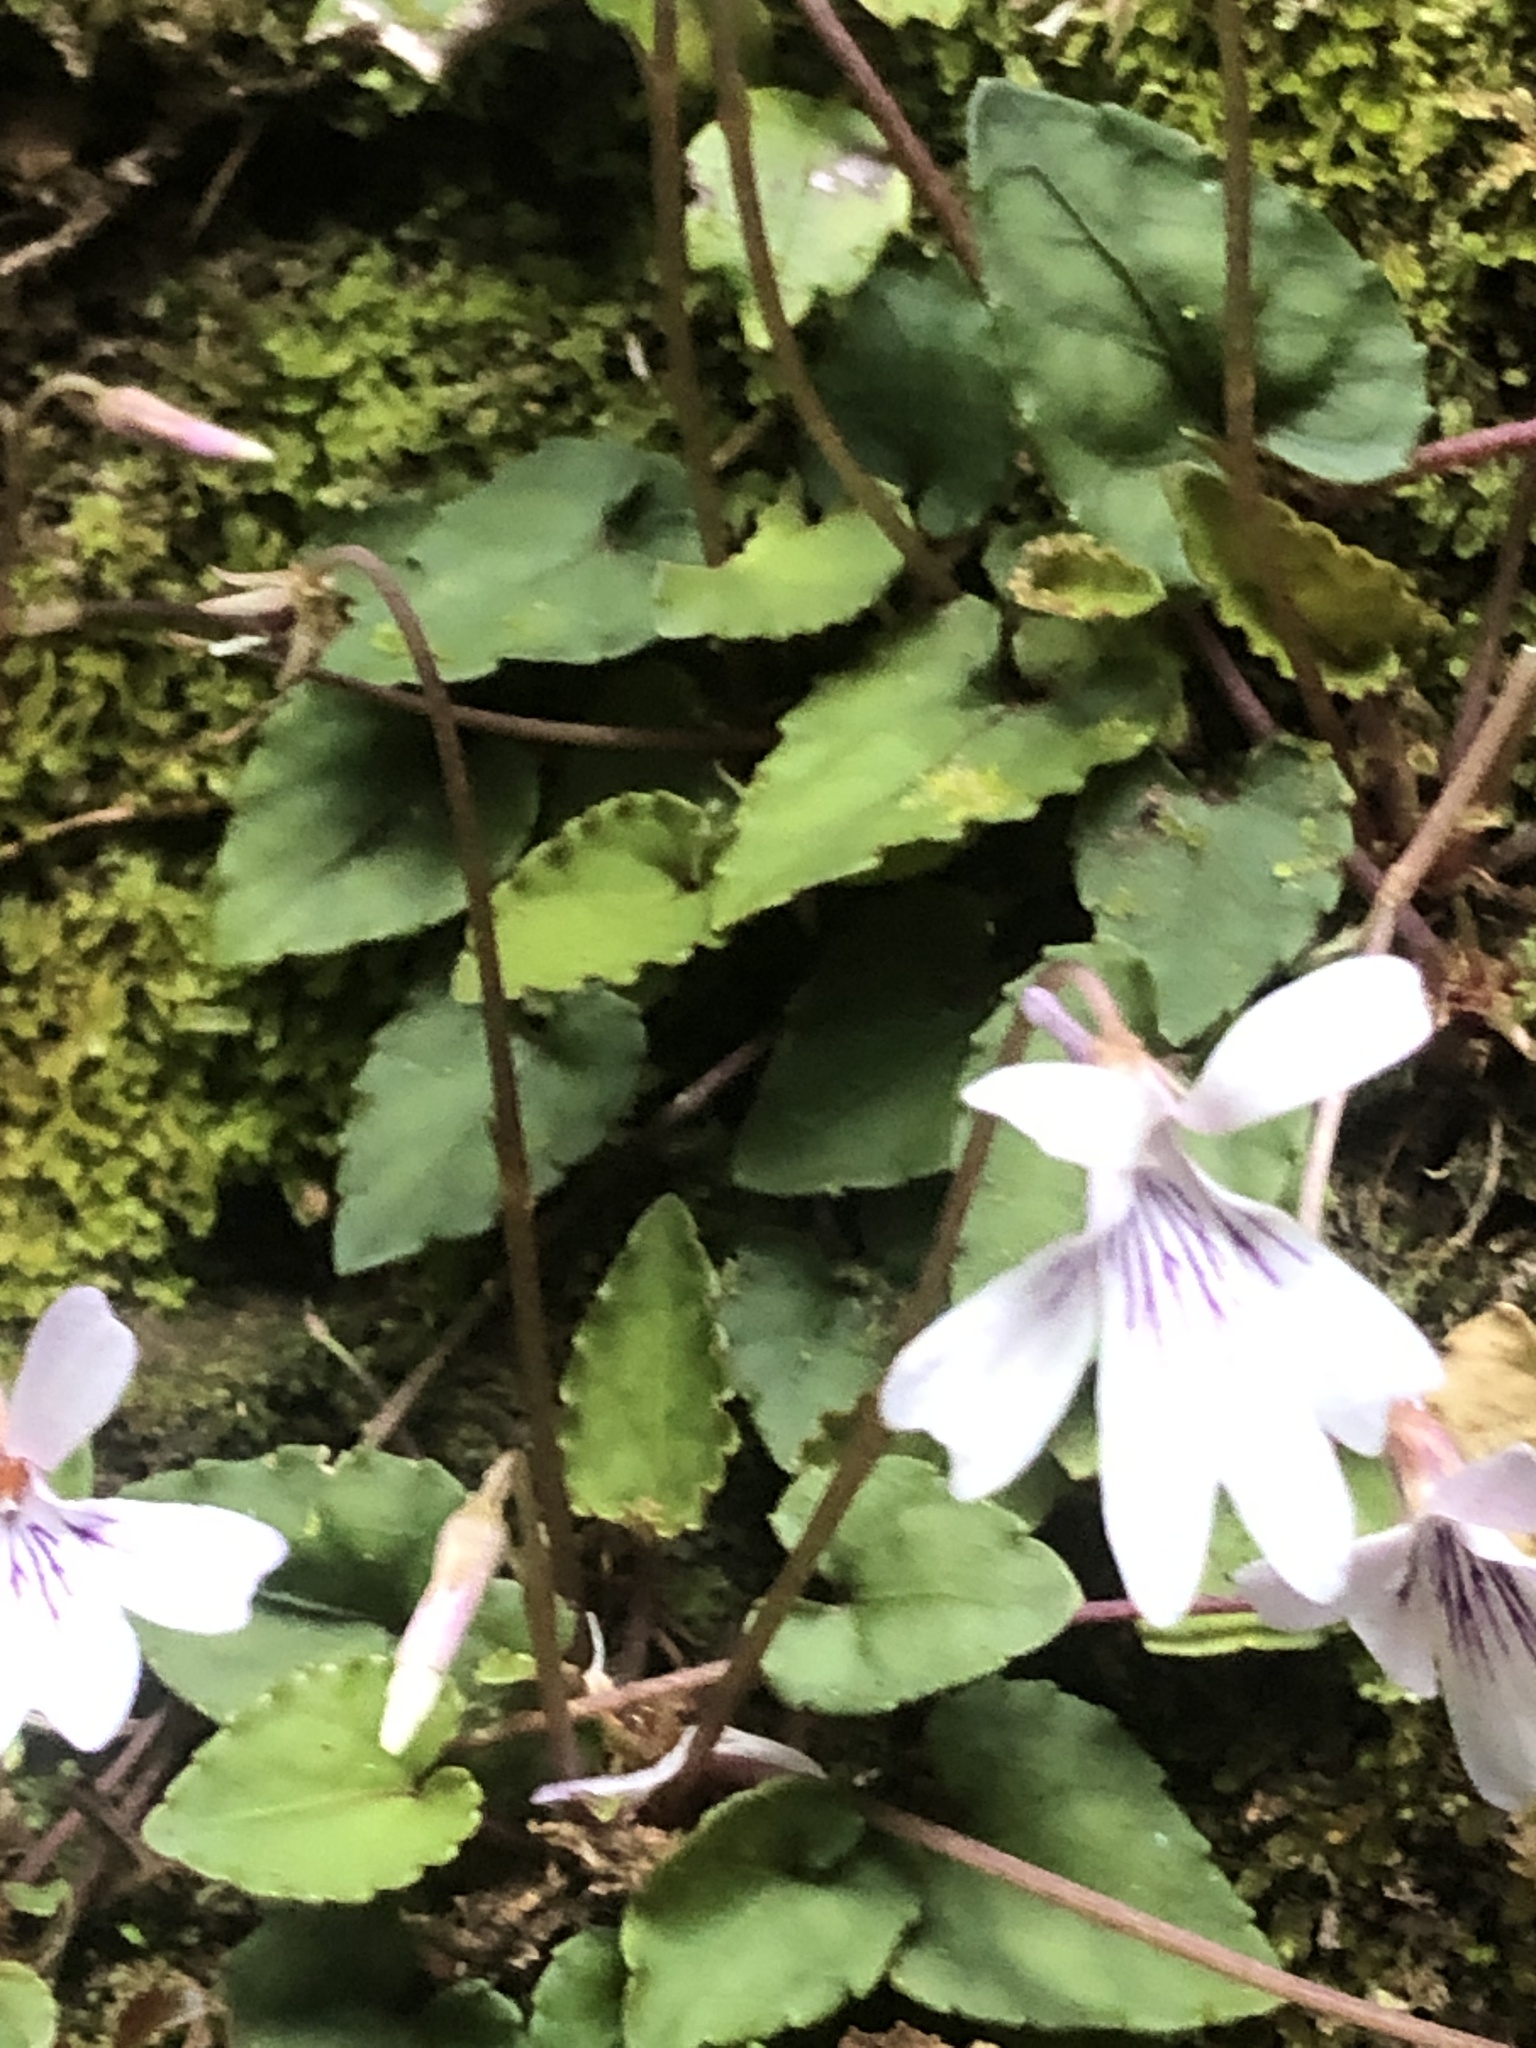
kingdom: Plantae
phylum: Tracheophyta
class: Magnoliopsida
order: Malpighiales
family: Violaceae
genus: Viola
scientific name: Viola formosana
